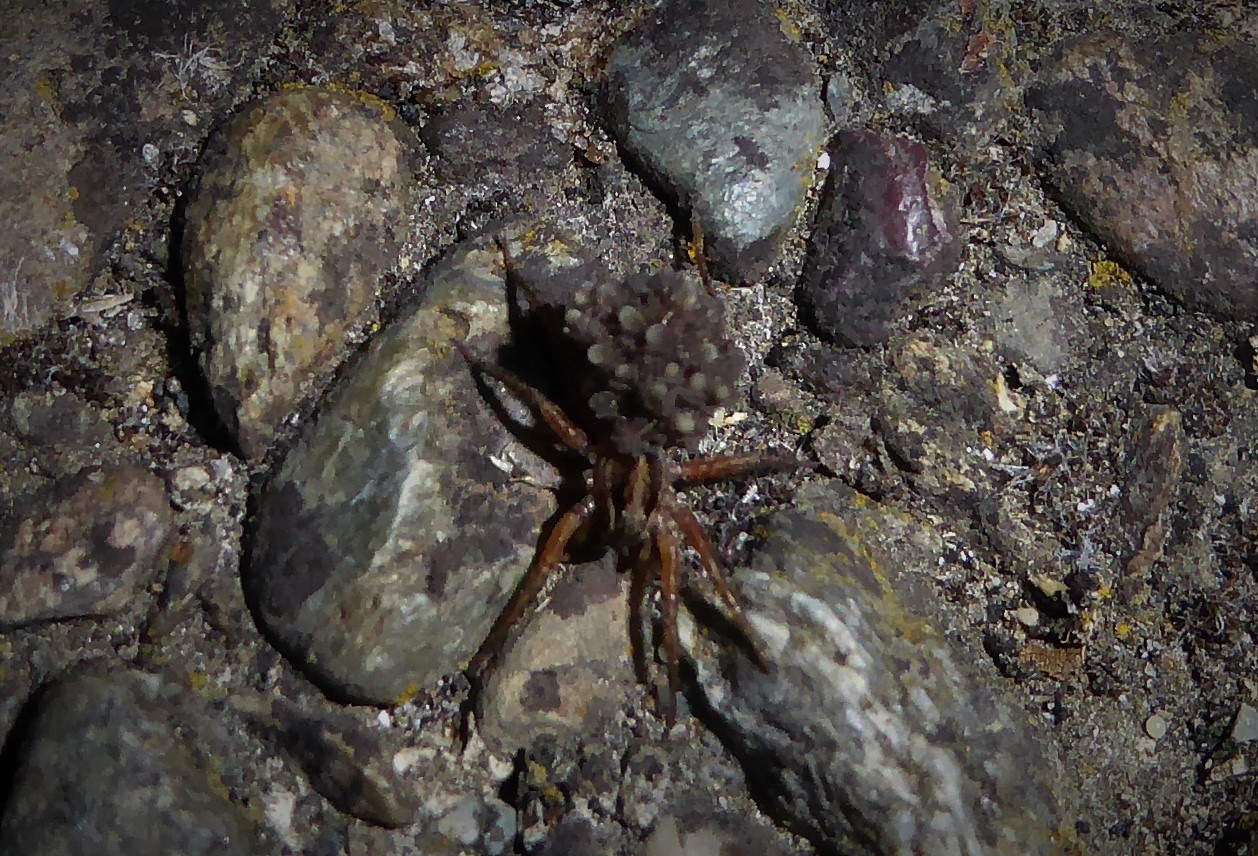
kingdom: Animalia
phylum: Arthropoda
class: Arachnida
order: Araneae
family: Lycosidae
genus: Anoteropsis
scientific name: Anoteropsis hilaris
